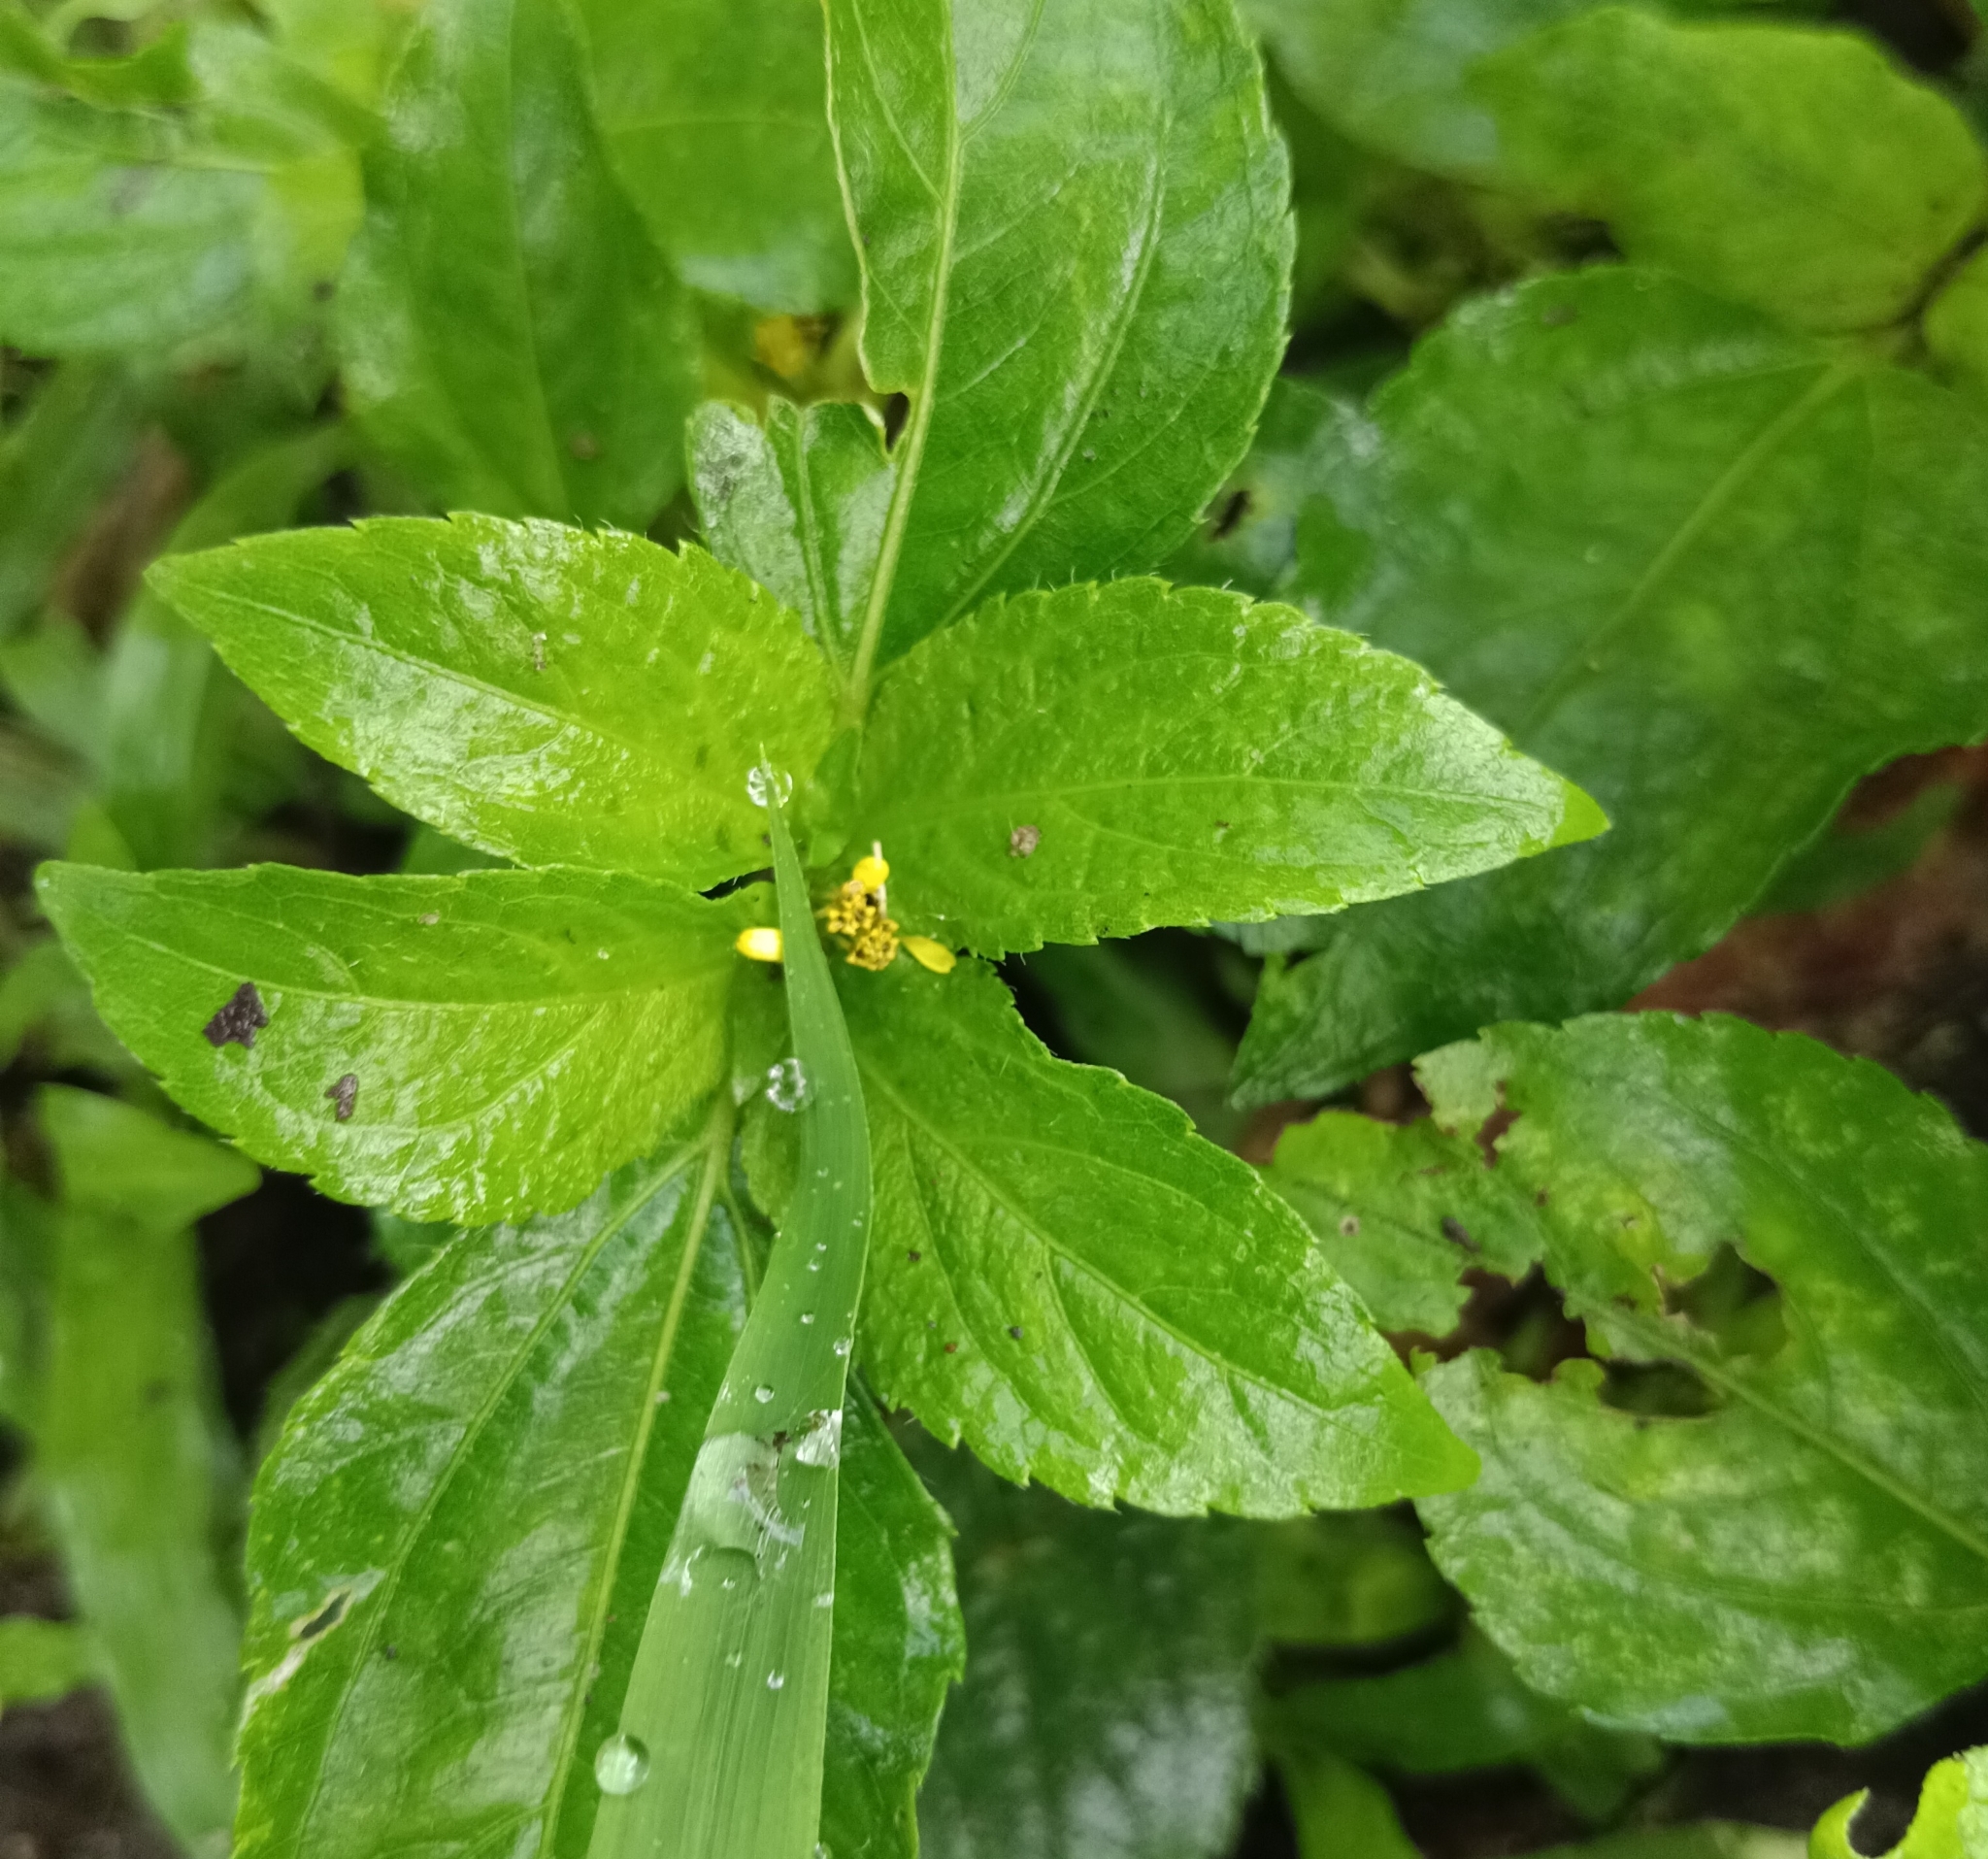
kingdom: Plantae
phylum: Tracheophyta
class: Magnoliopsida
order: Asterales
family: Asteraceae
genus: Synedrella
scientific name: Synedrella nodiflora
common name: Nodeweed
